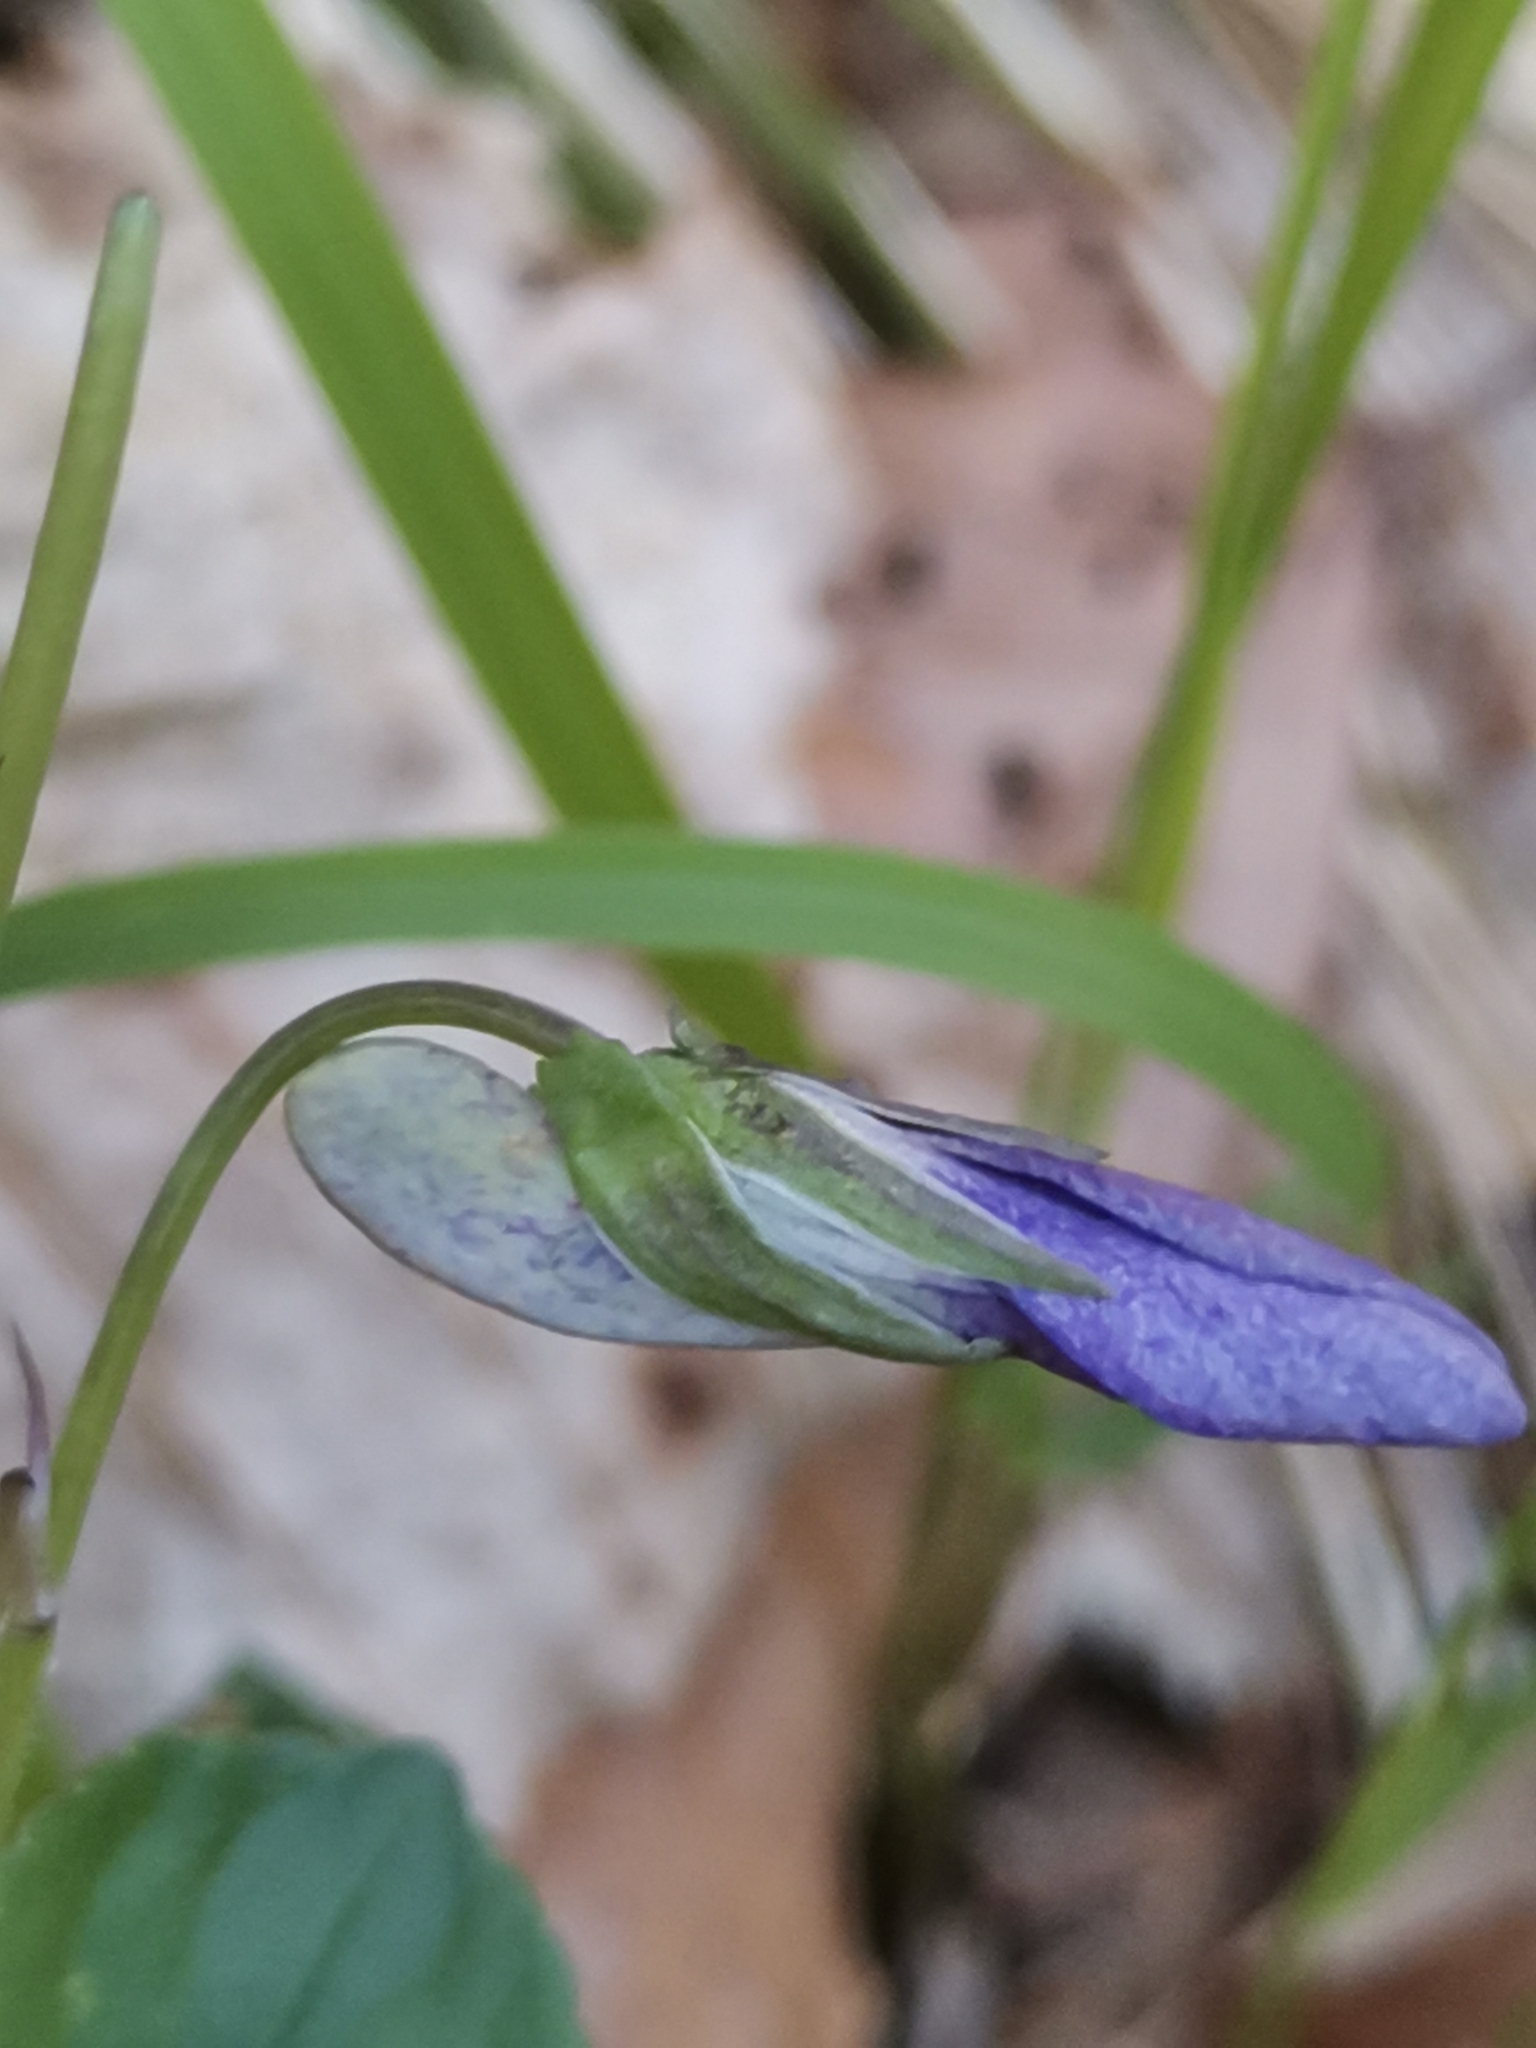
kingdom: Plantae
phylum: Tracheophyta
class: Magnoliopsida
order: Malpighiales
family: Violaceae
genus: Viola
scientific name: Viola riviniana
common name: Common dog-violet
